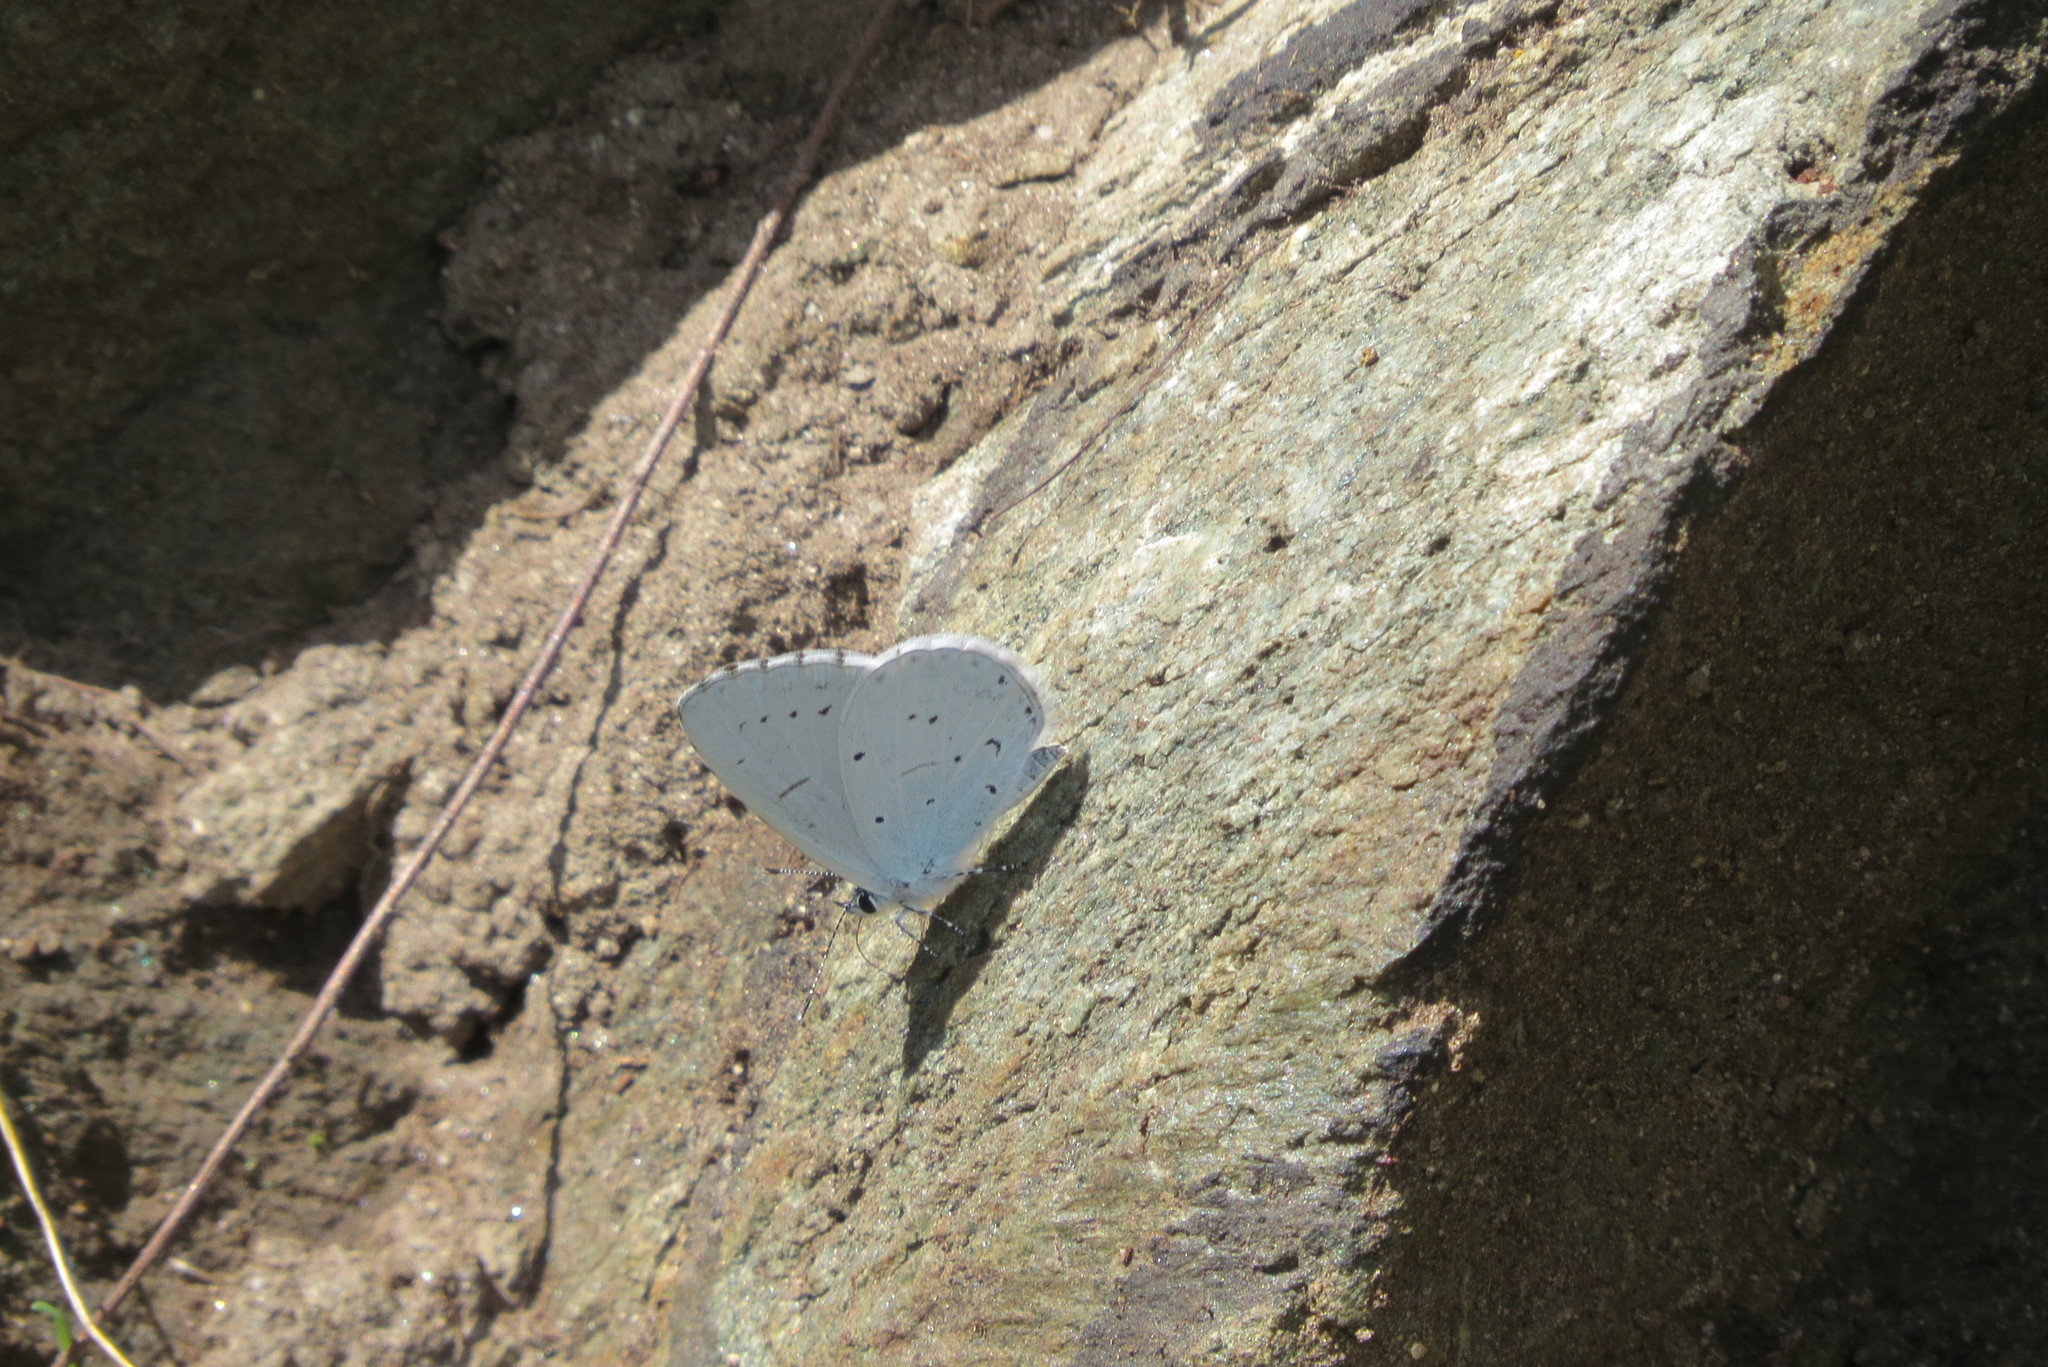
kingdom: Animalia
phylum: Arthropoda
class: Insecta
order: Lepidoptera
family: Lycaenidae
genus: Celastrina
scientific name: Celastrina argiolus
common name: Holly blue
